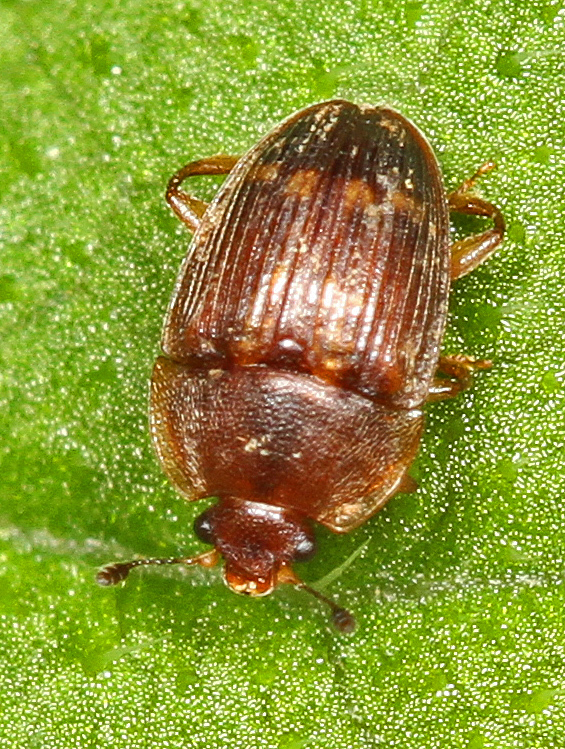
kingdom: Animalia
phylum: Arthropoda
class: Insecta
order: Coleoptera
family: Nitidulidae
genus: Stelidota
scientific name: Stelidota geminata
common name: Strawberry sap beetle
